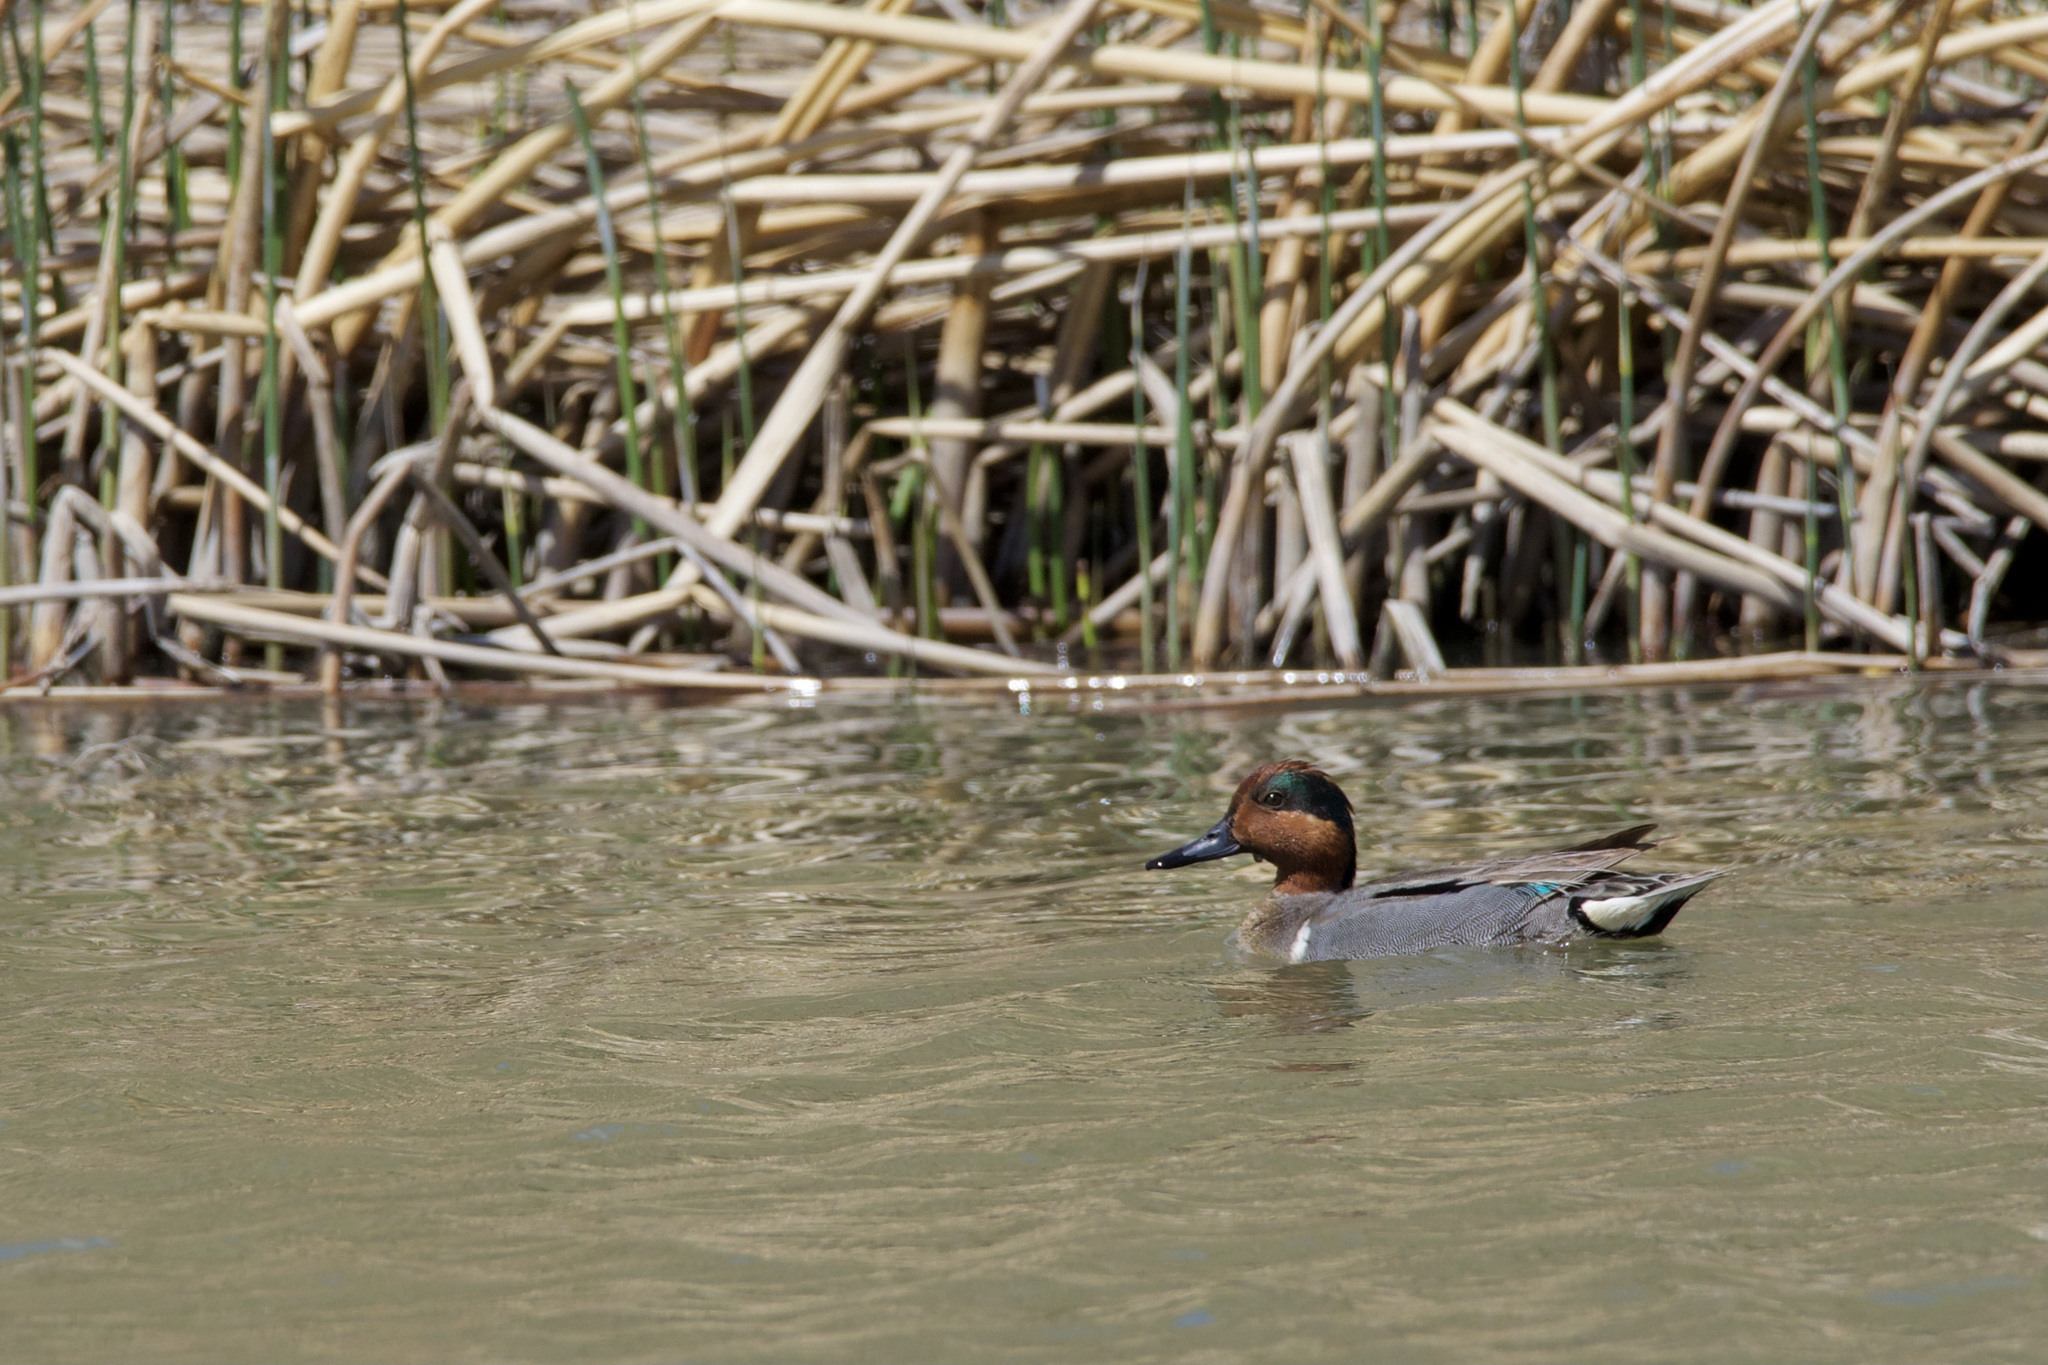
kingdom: Animalia
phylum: Chordata
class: Aves
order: Anseriformes
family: Anatidae
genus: Anas
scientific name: Anas crecca
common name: Eurasian teal
